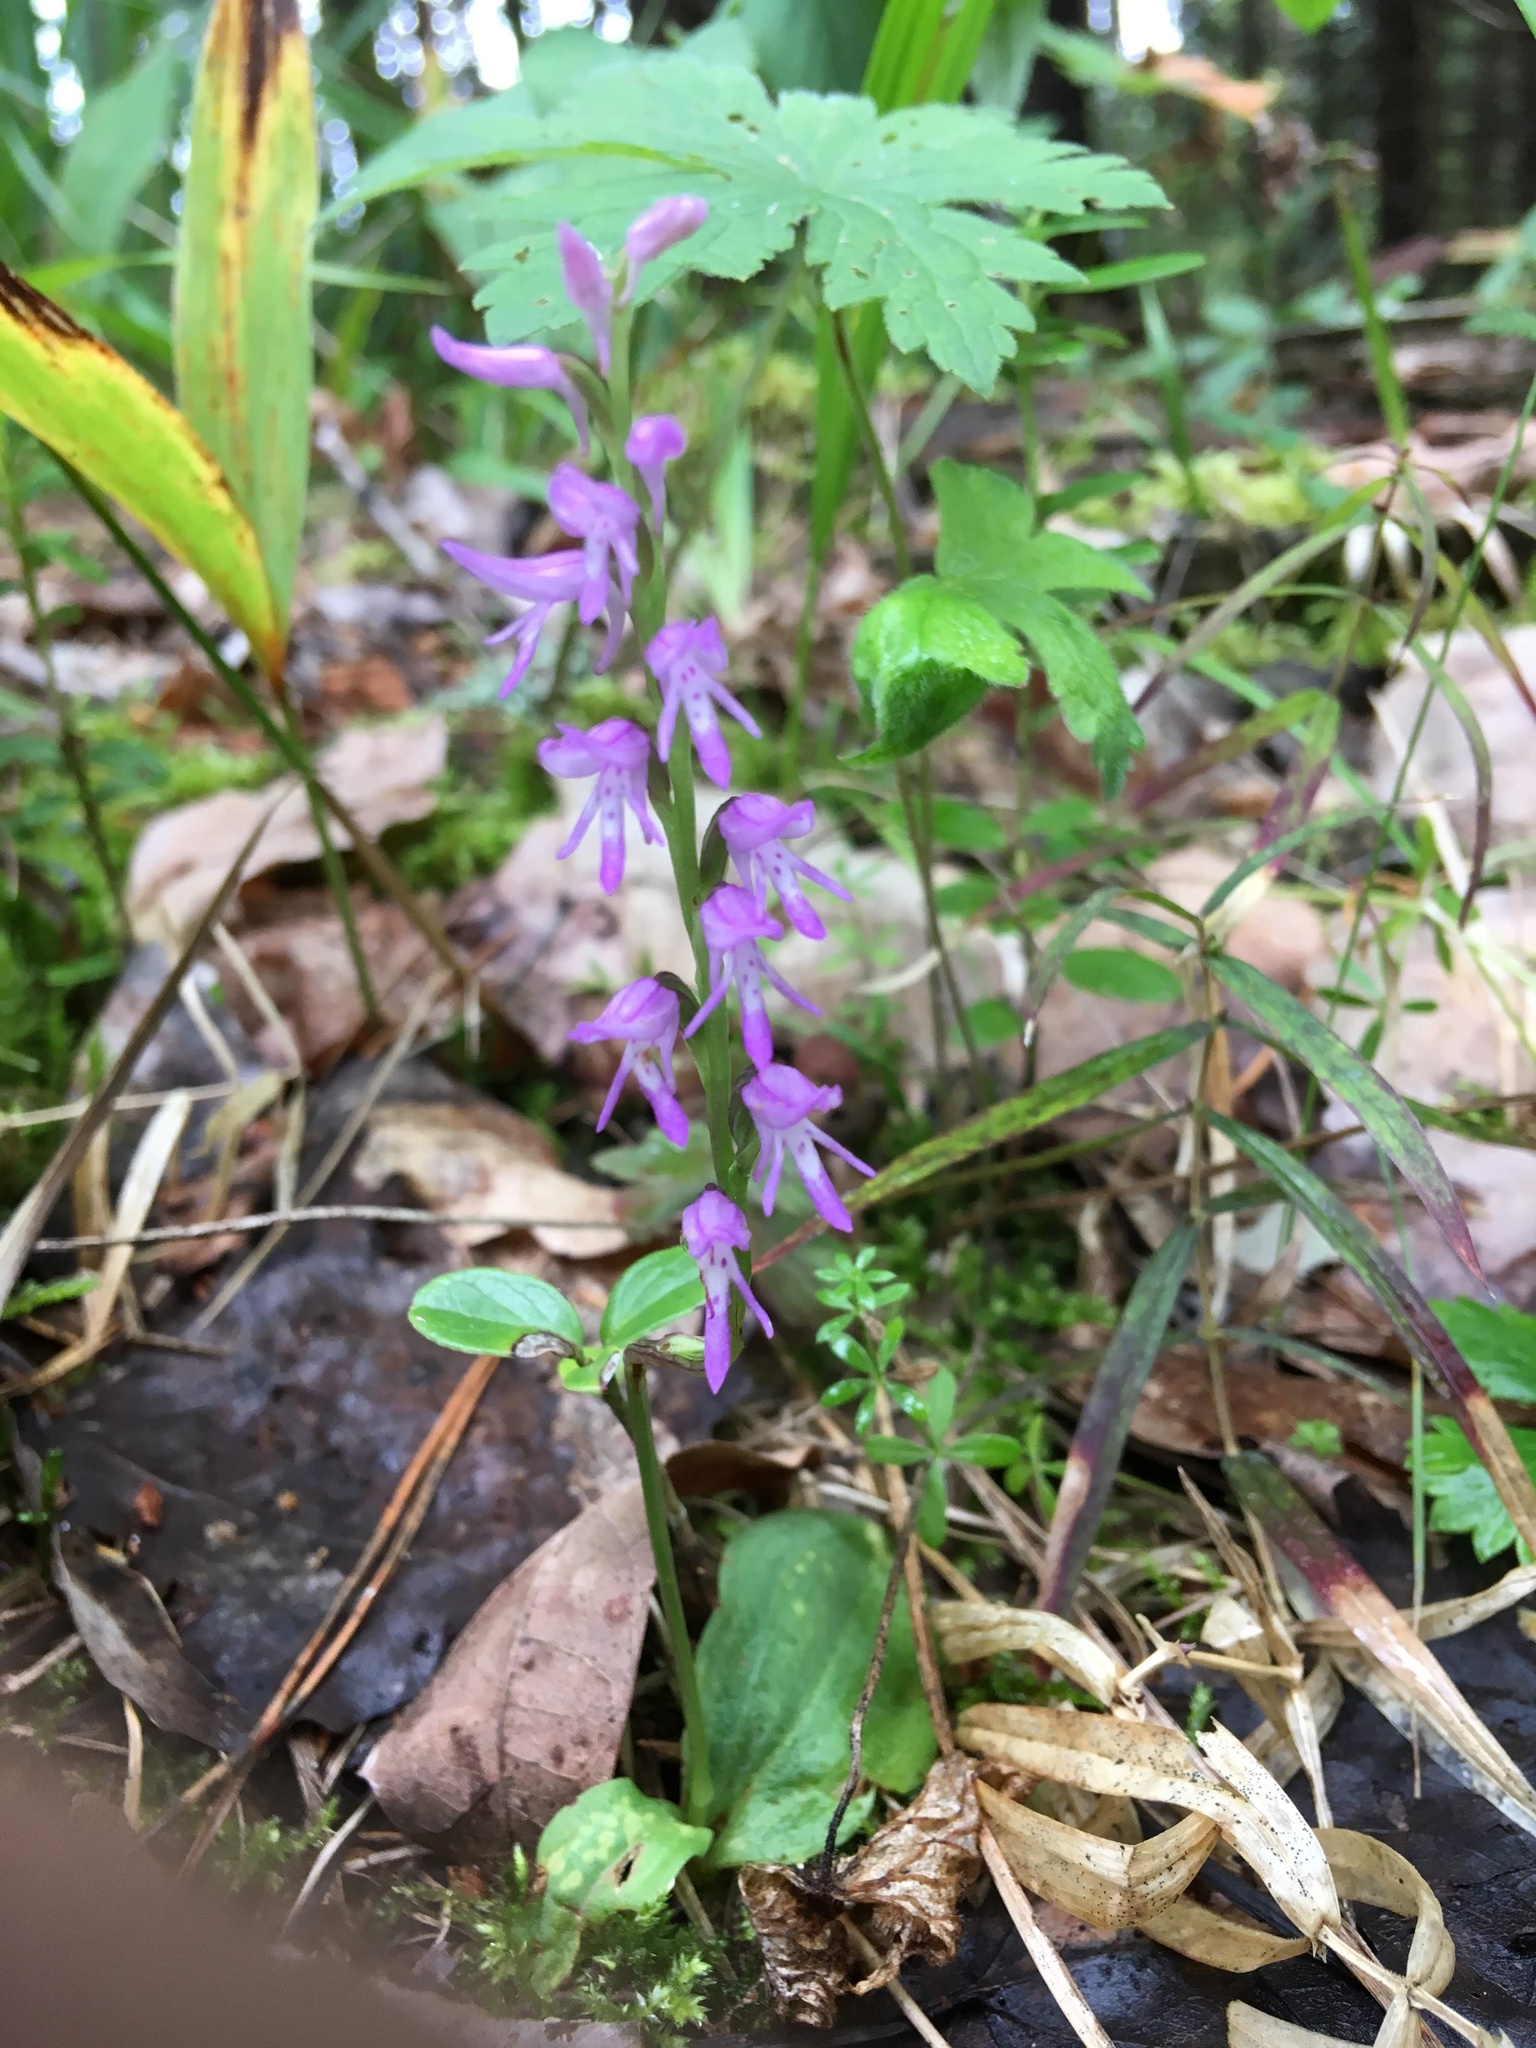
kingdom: Plantae
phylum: Tracheophyta
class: Liliopsida
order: Asparagales
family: Orchidaceae
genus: Hemipilia
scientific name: Hemipilia cucullata
